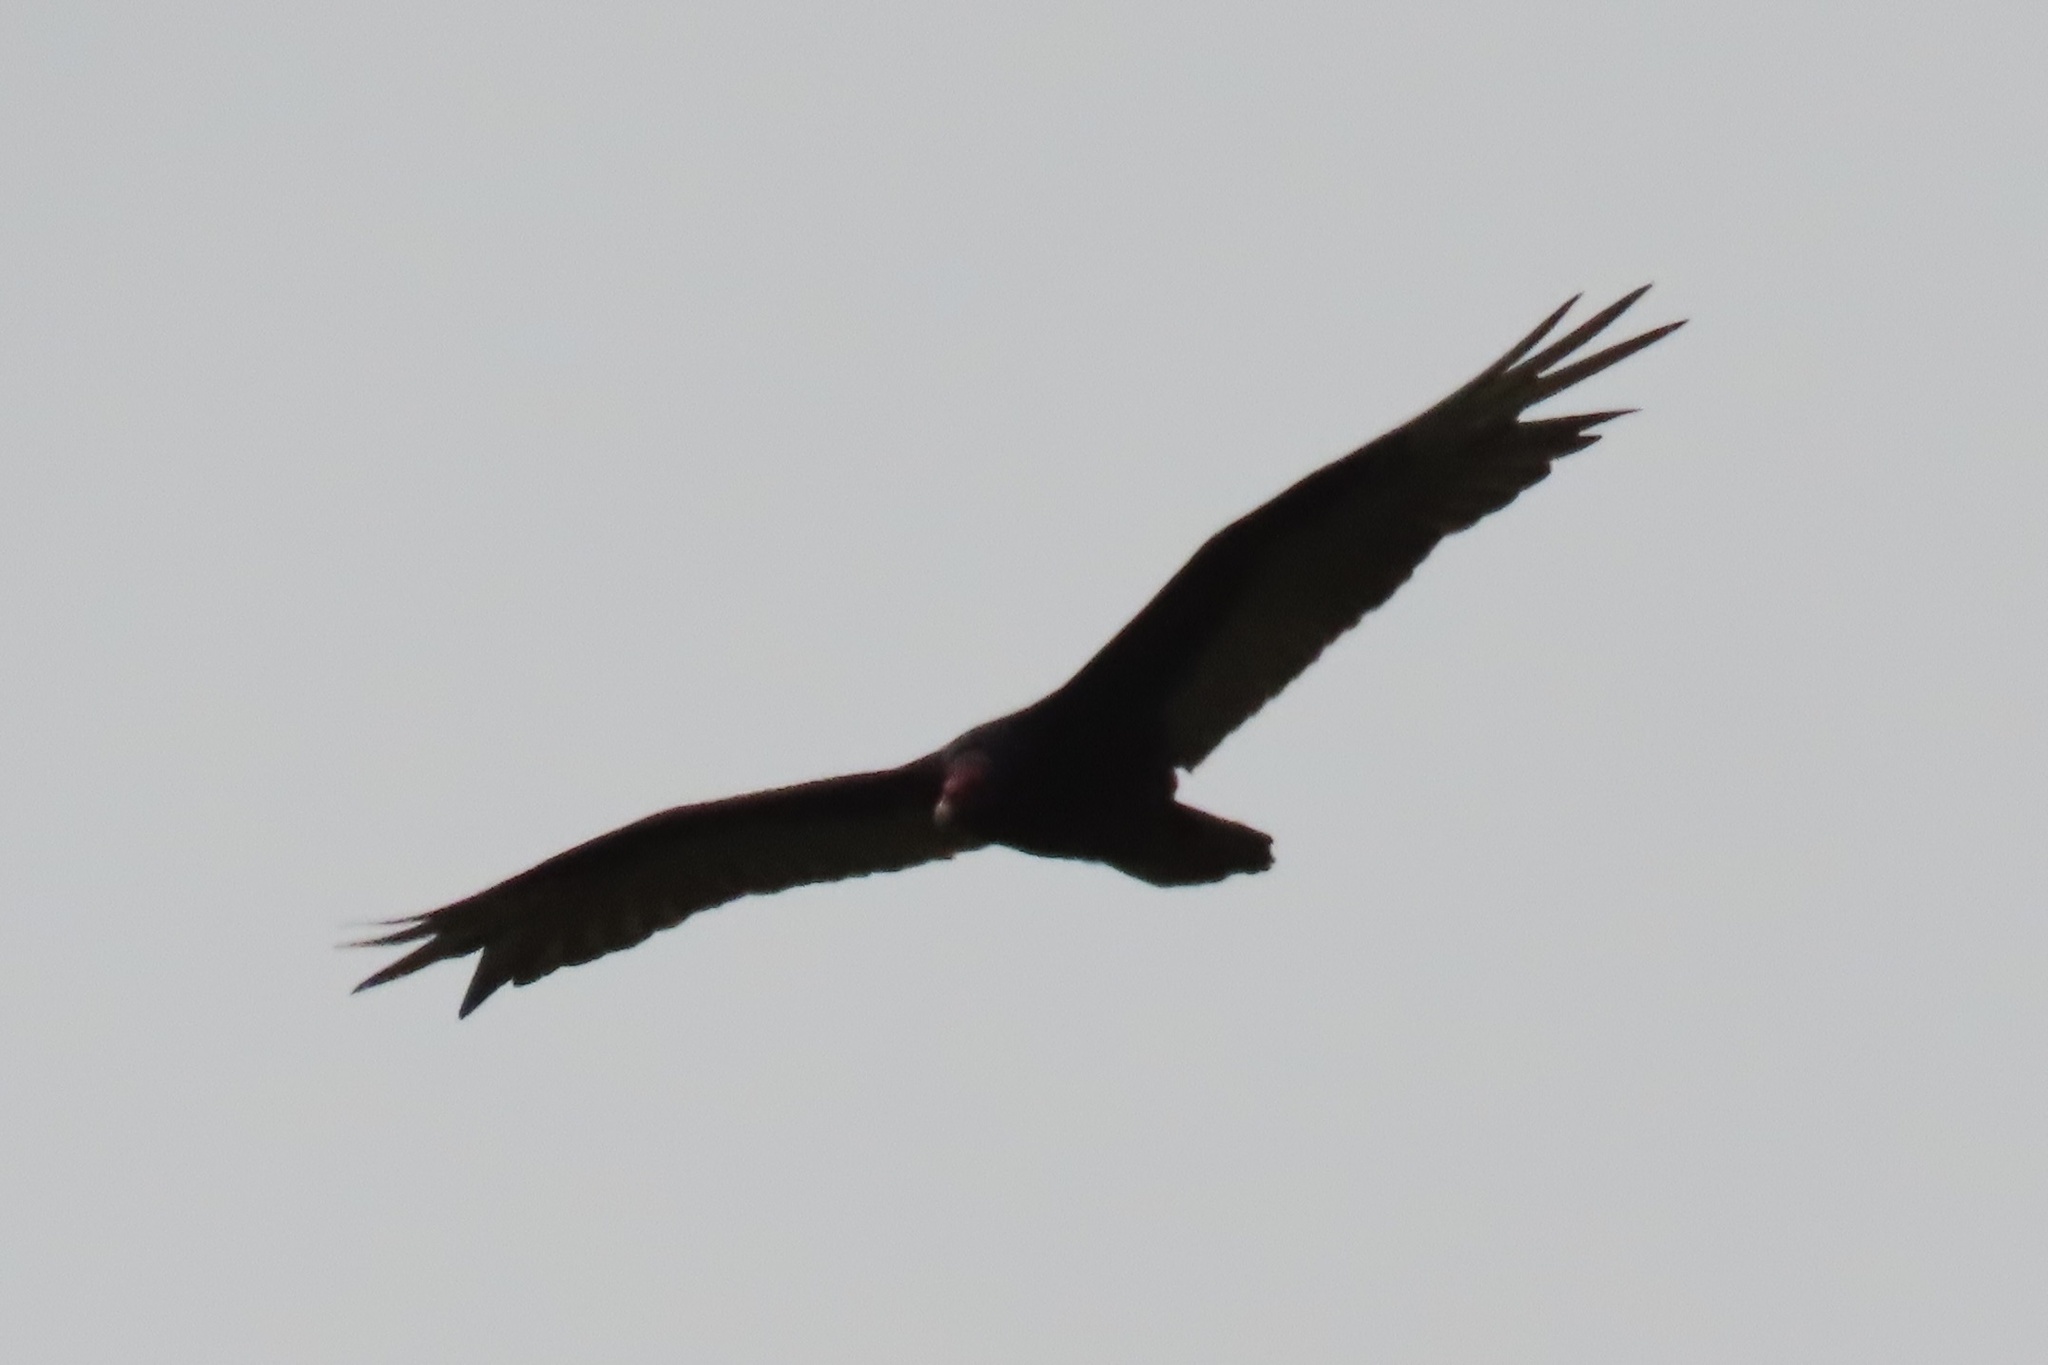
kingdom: Animalia
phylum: Chordata
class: Aves
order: Accipitriformes
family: Cathartidae
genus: Cathartes
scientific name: Cathartes aura
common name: Turkey vulture
